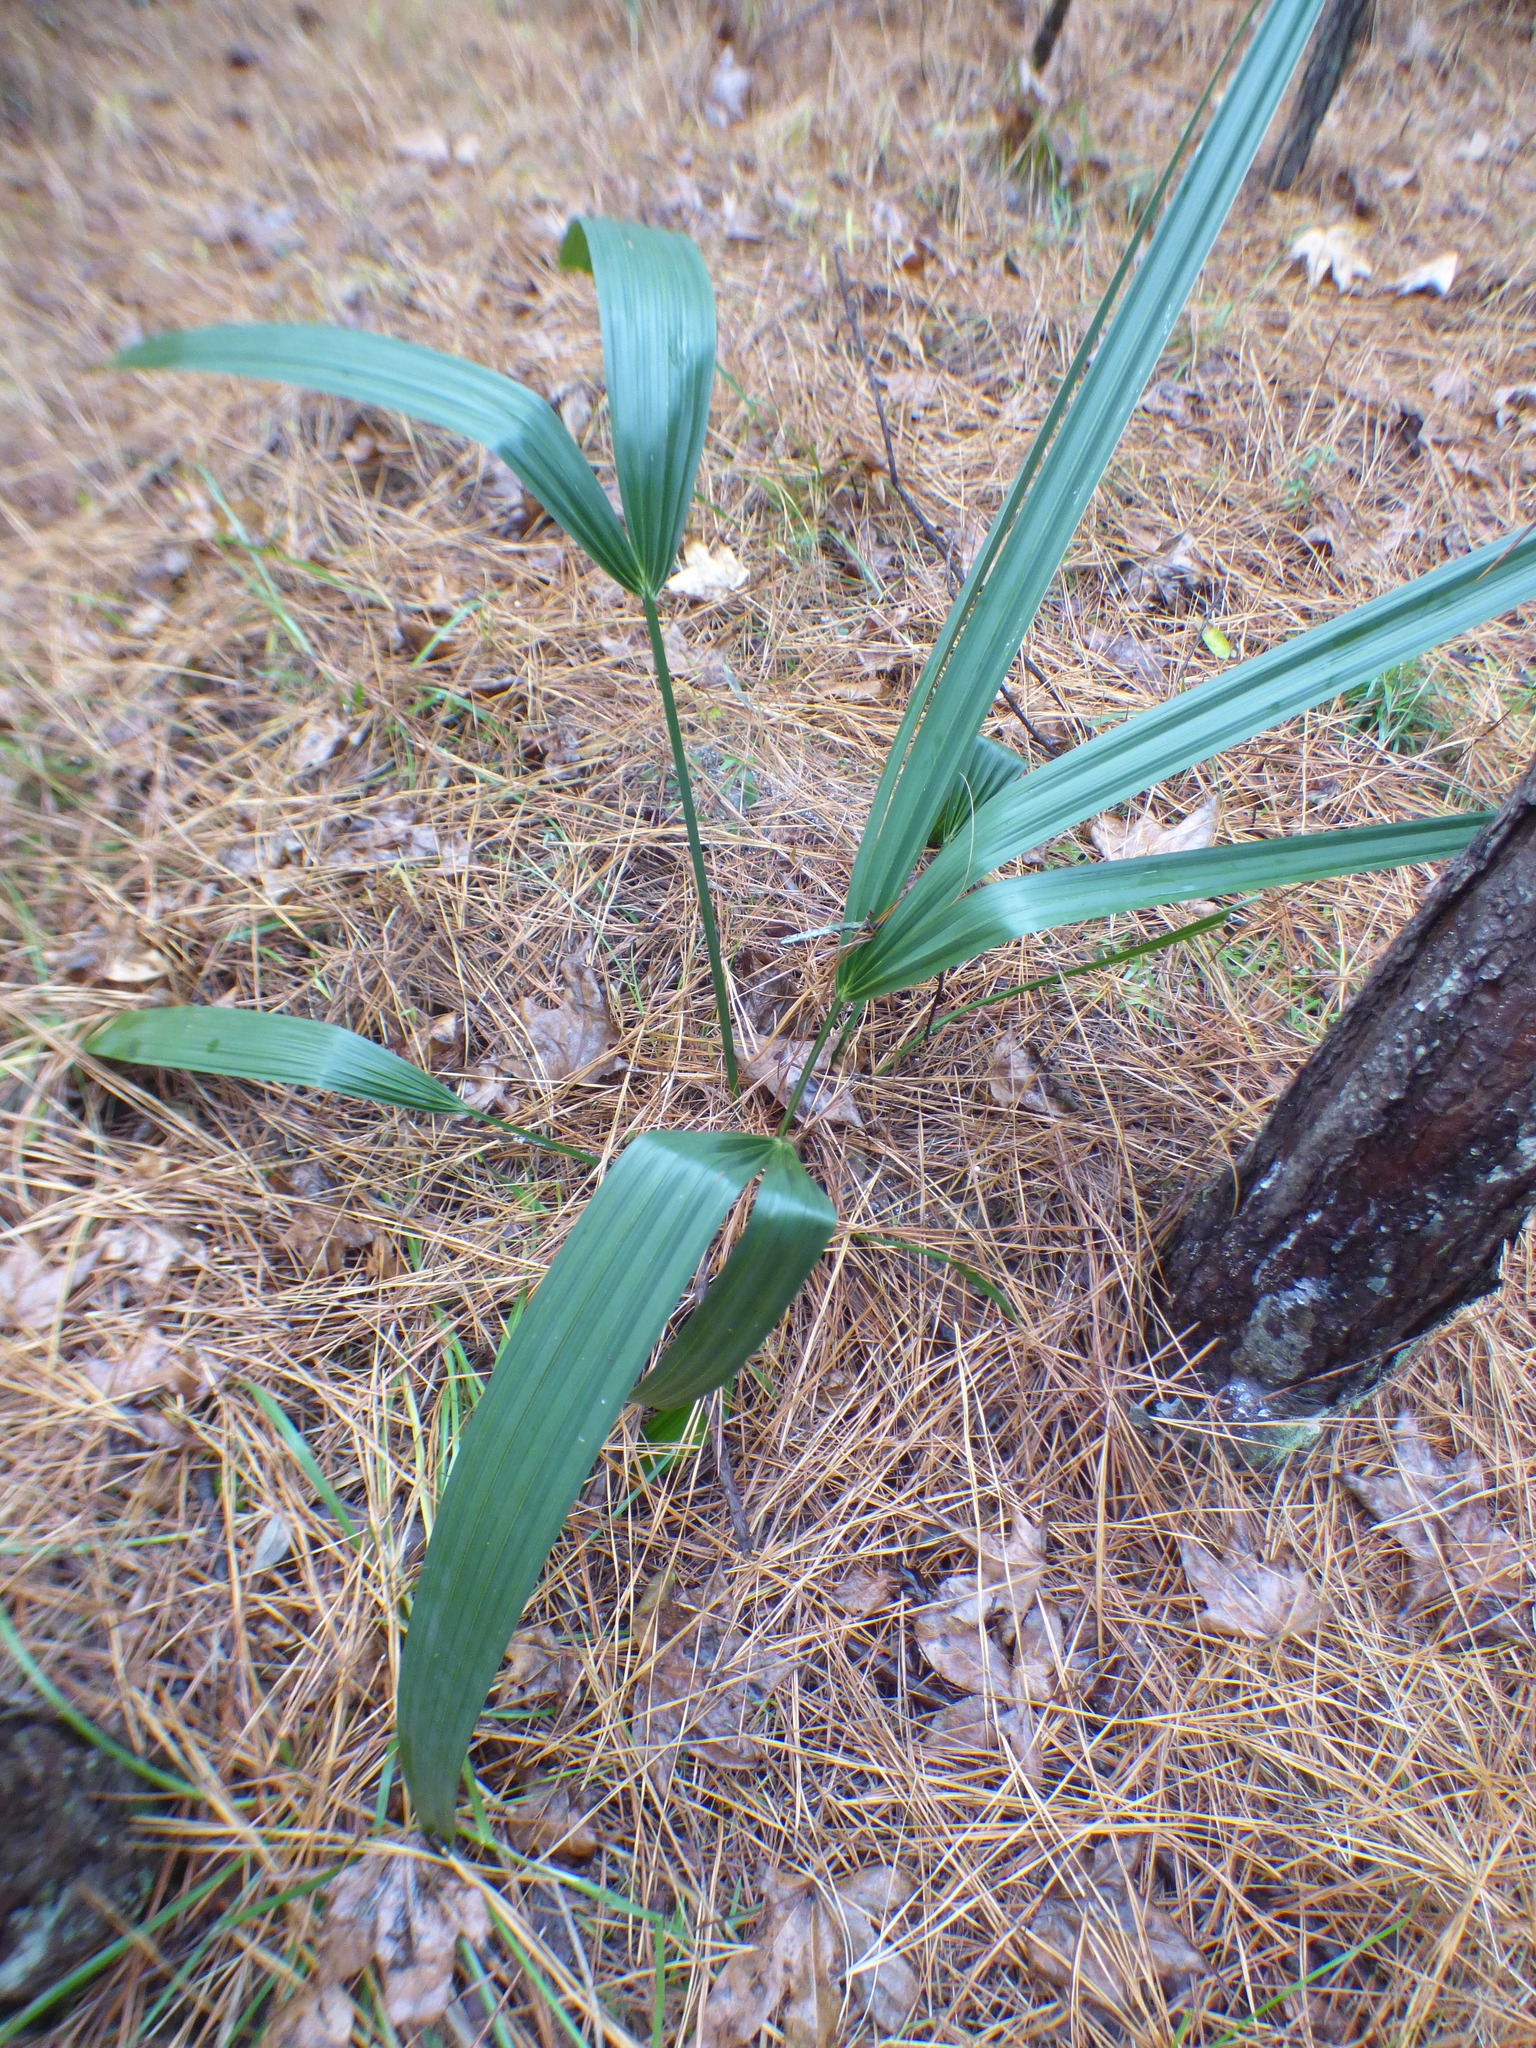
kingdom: Plantae
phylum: Tracheophyta
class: Liliopsida
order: Arecales
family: Arecaceae
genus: Sabal
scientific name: Sabal minor
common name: Dwarf palmetto
